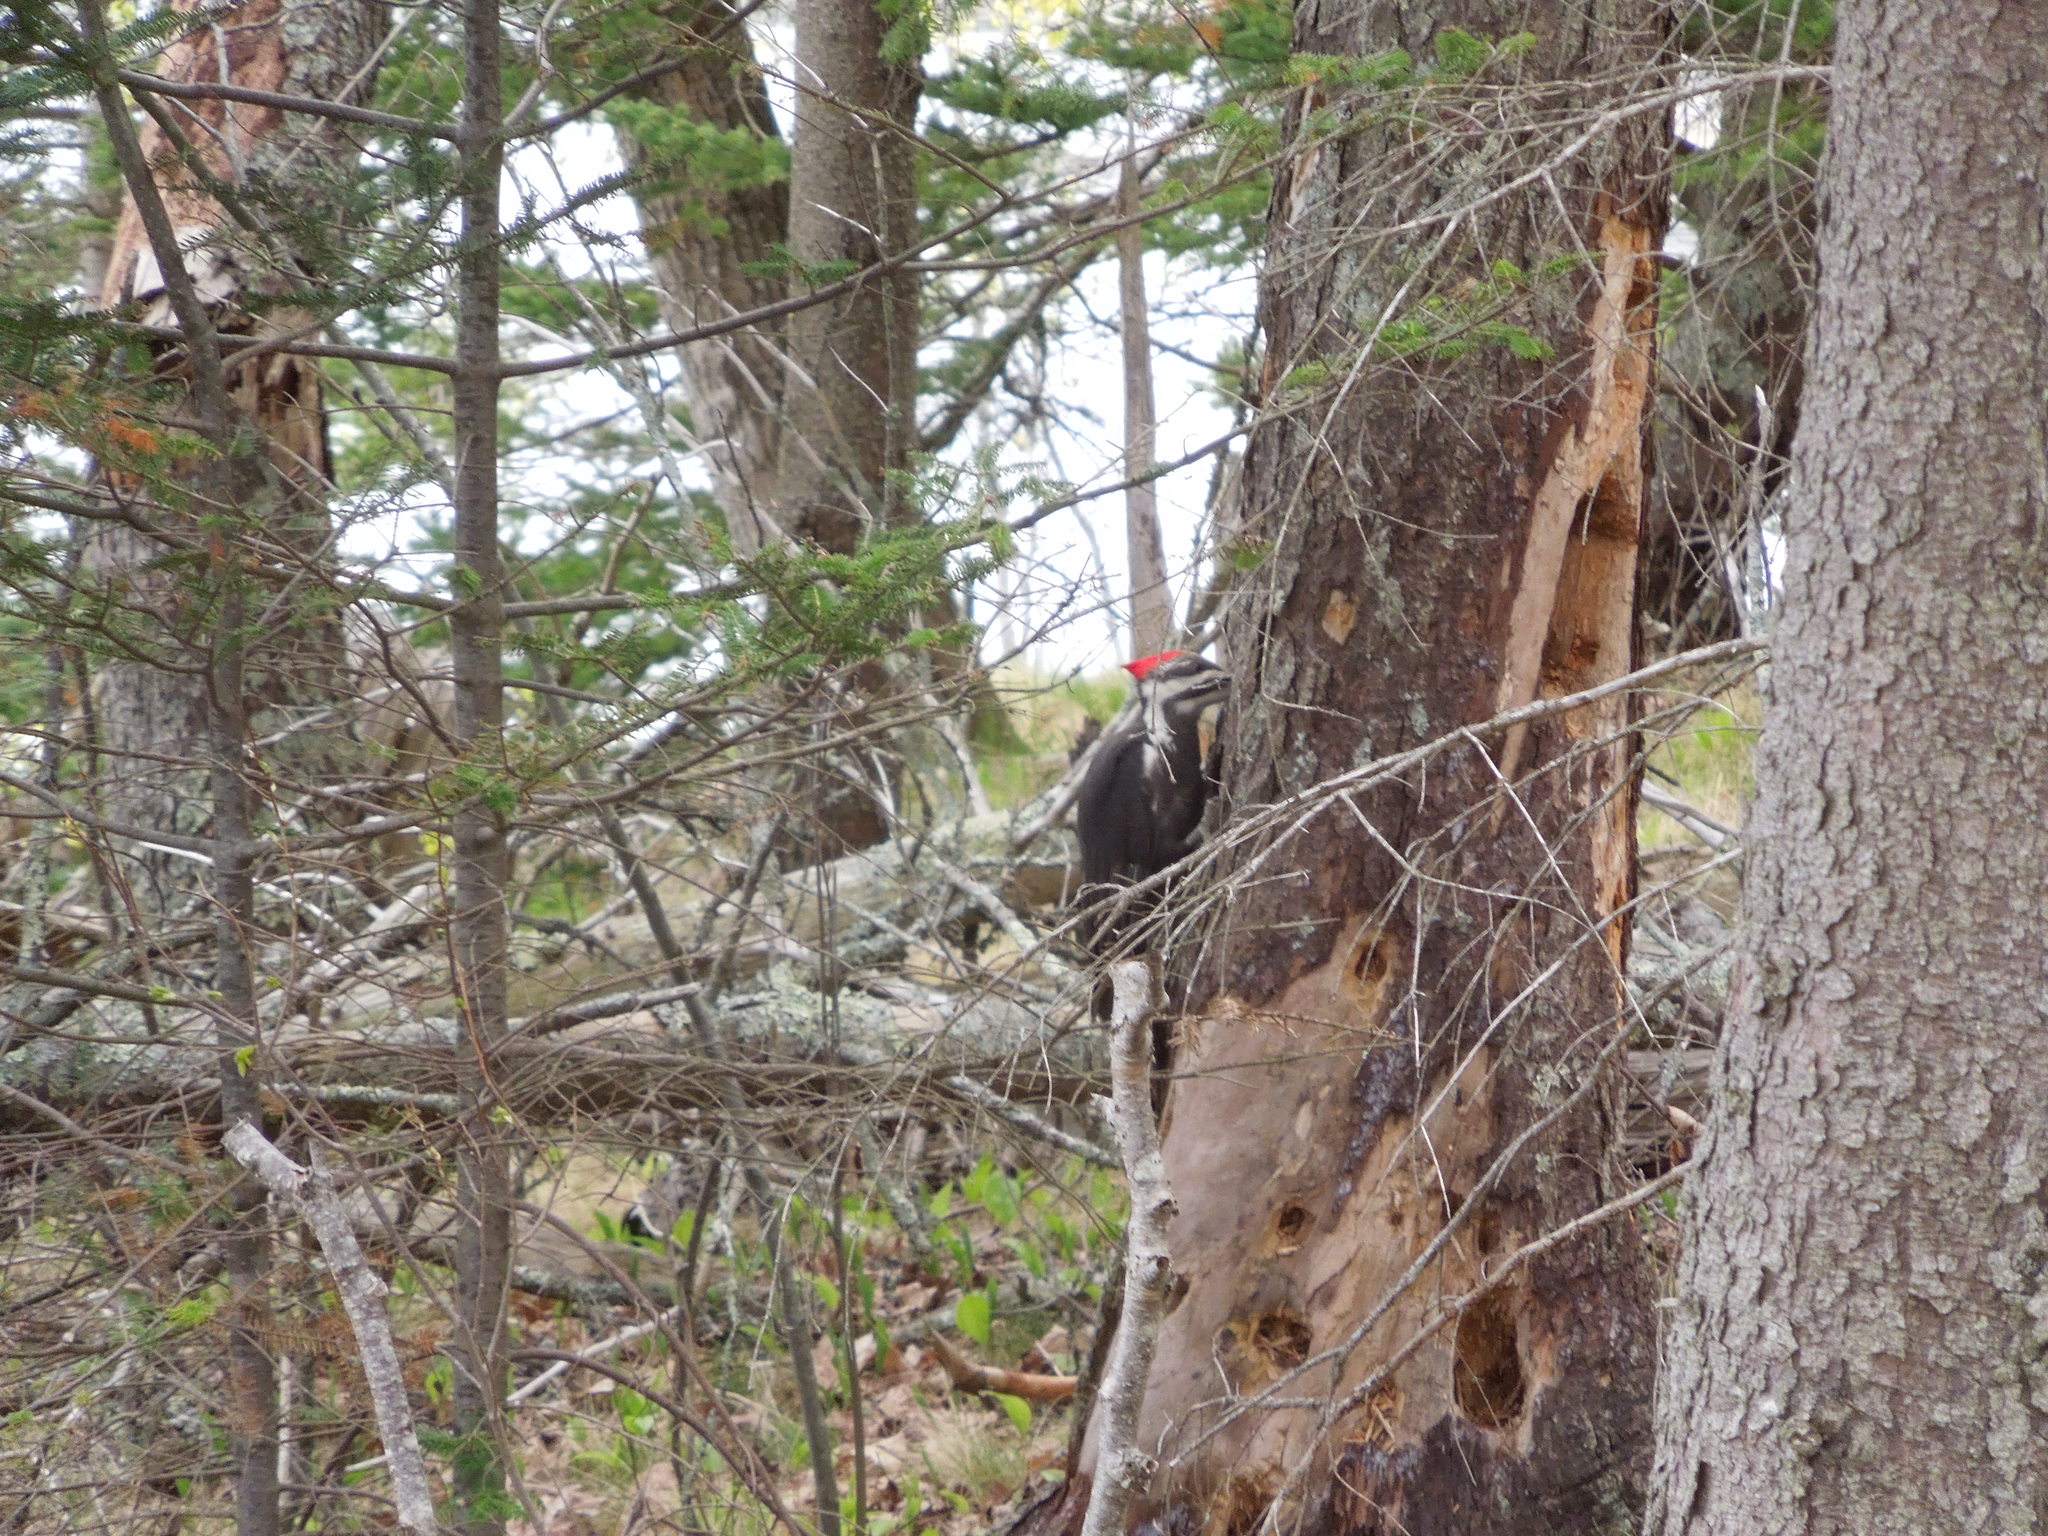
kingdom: Animalia
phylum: Chordata
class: Aves
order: Piciformes
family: Picidae
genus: Dryocopus
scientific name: Dryocopus pileatus
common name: Pileated woodpecker
